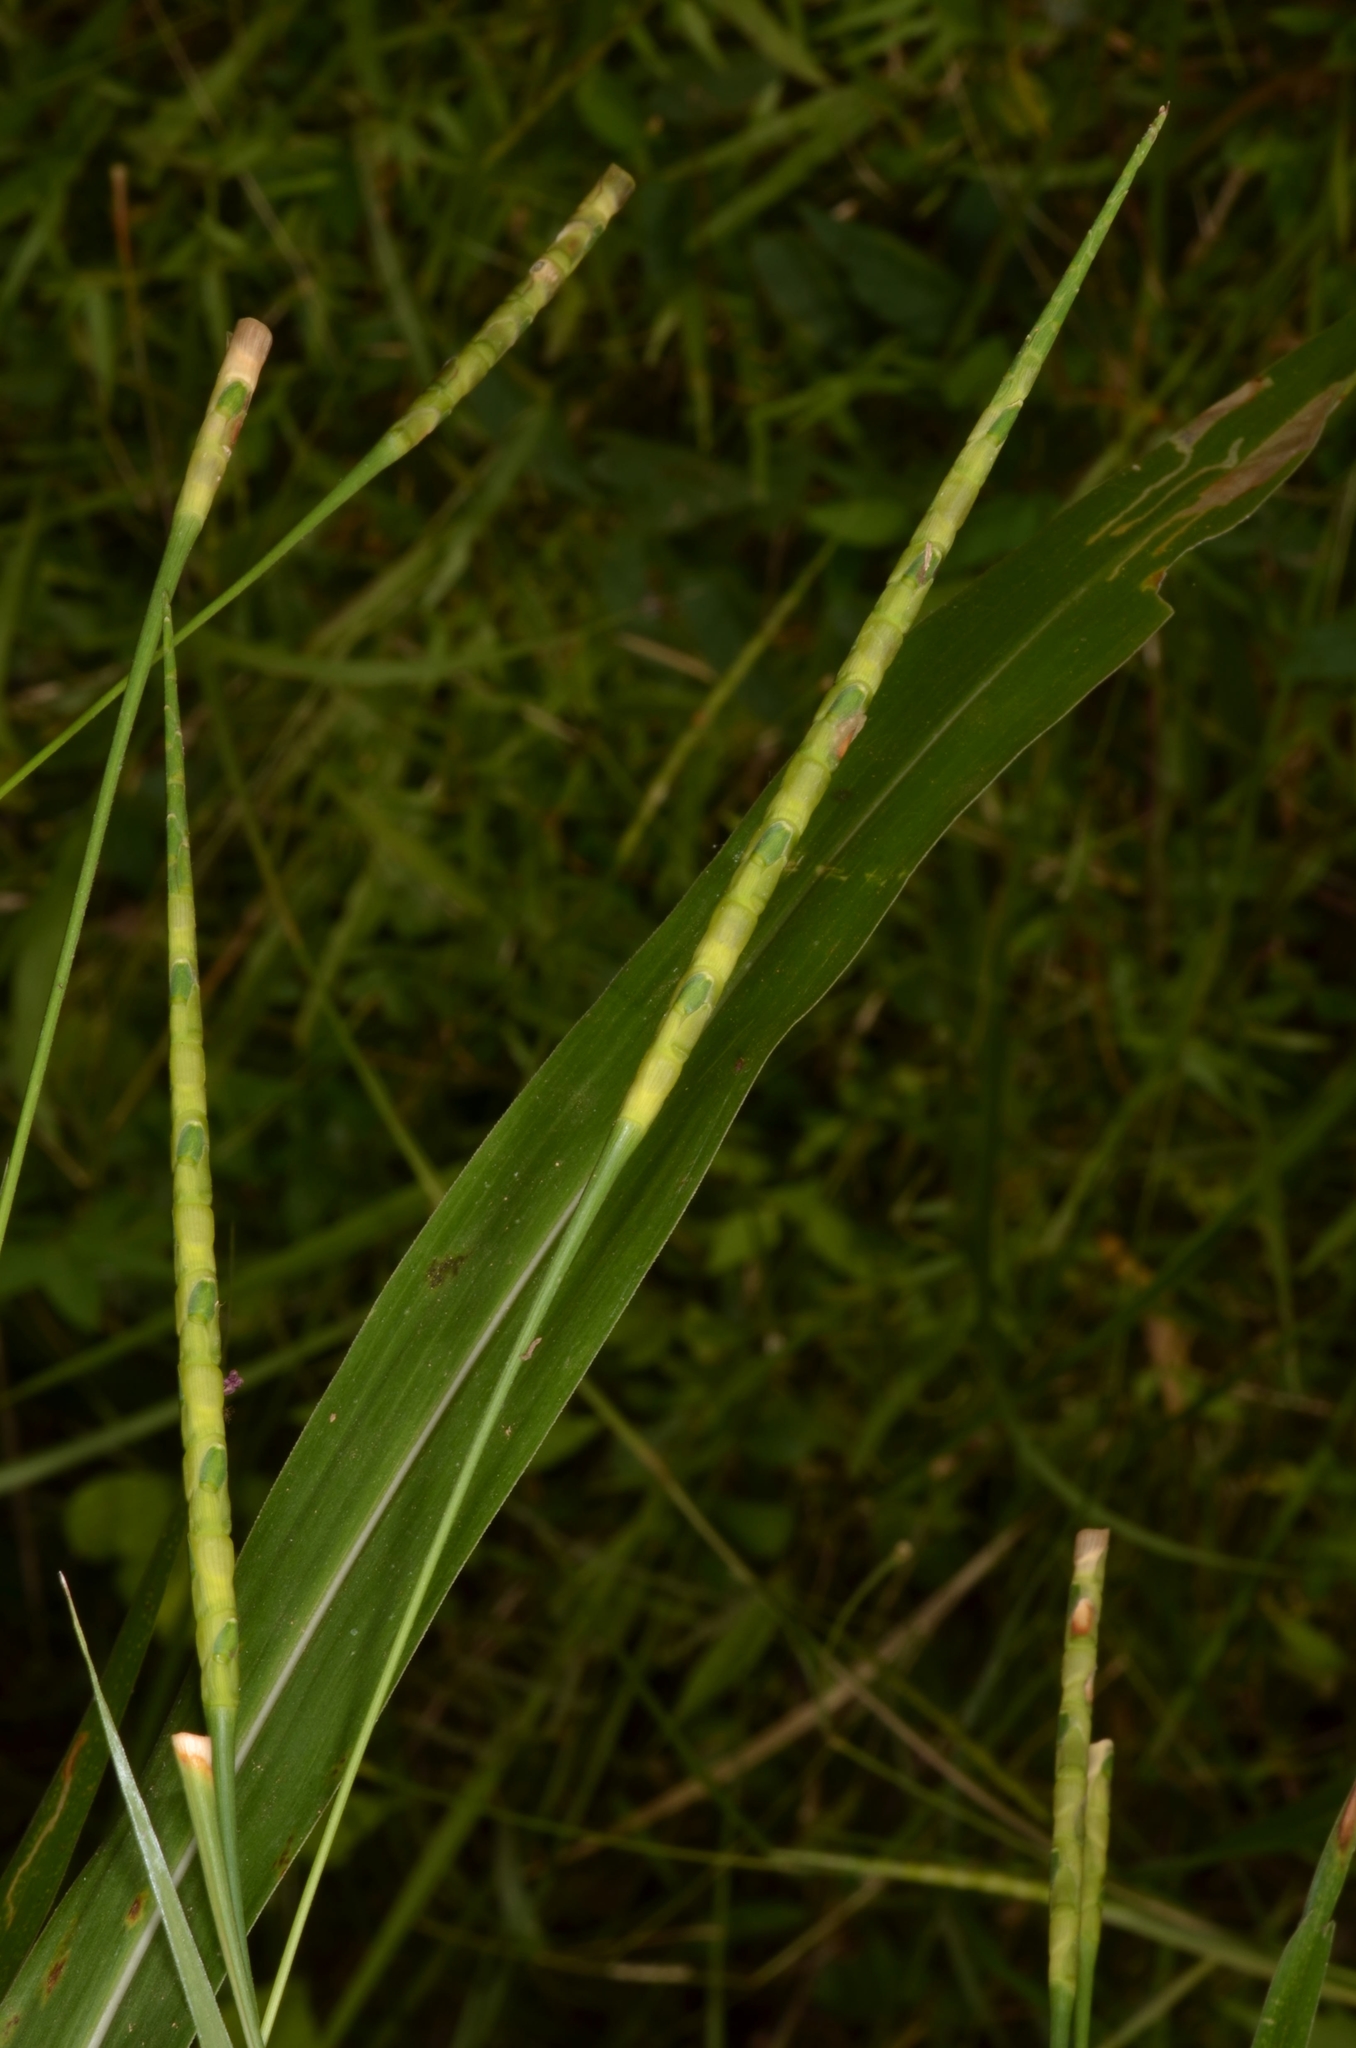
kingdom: Plantae
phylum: Tracheophyta
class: Liliopsida
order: Poales
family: Poaceae
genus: Rottboellia
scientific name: Rottboellia cochinchinensis
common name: Itchgrass
